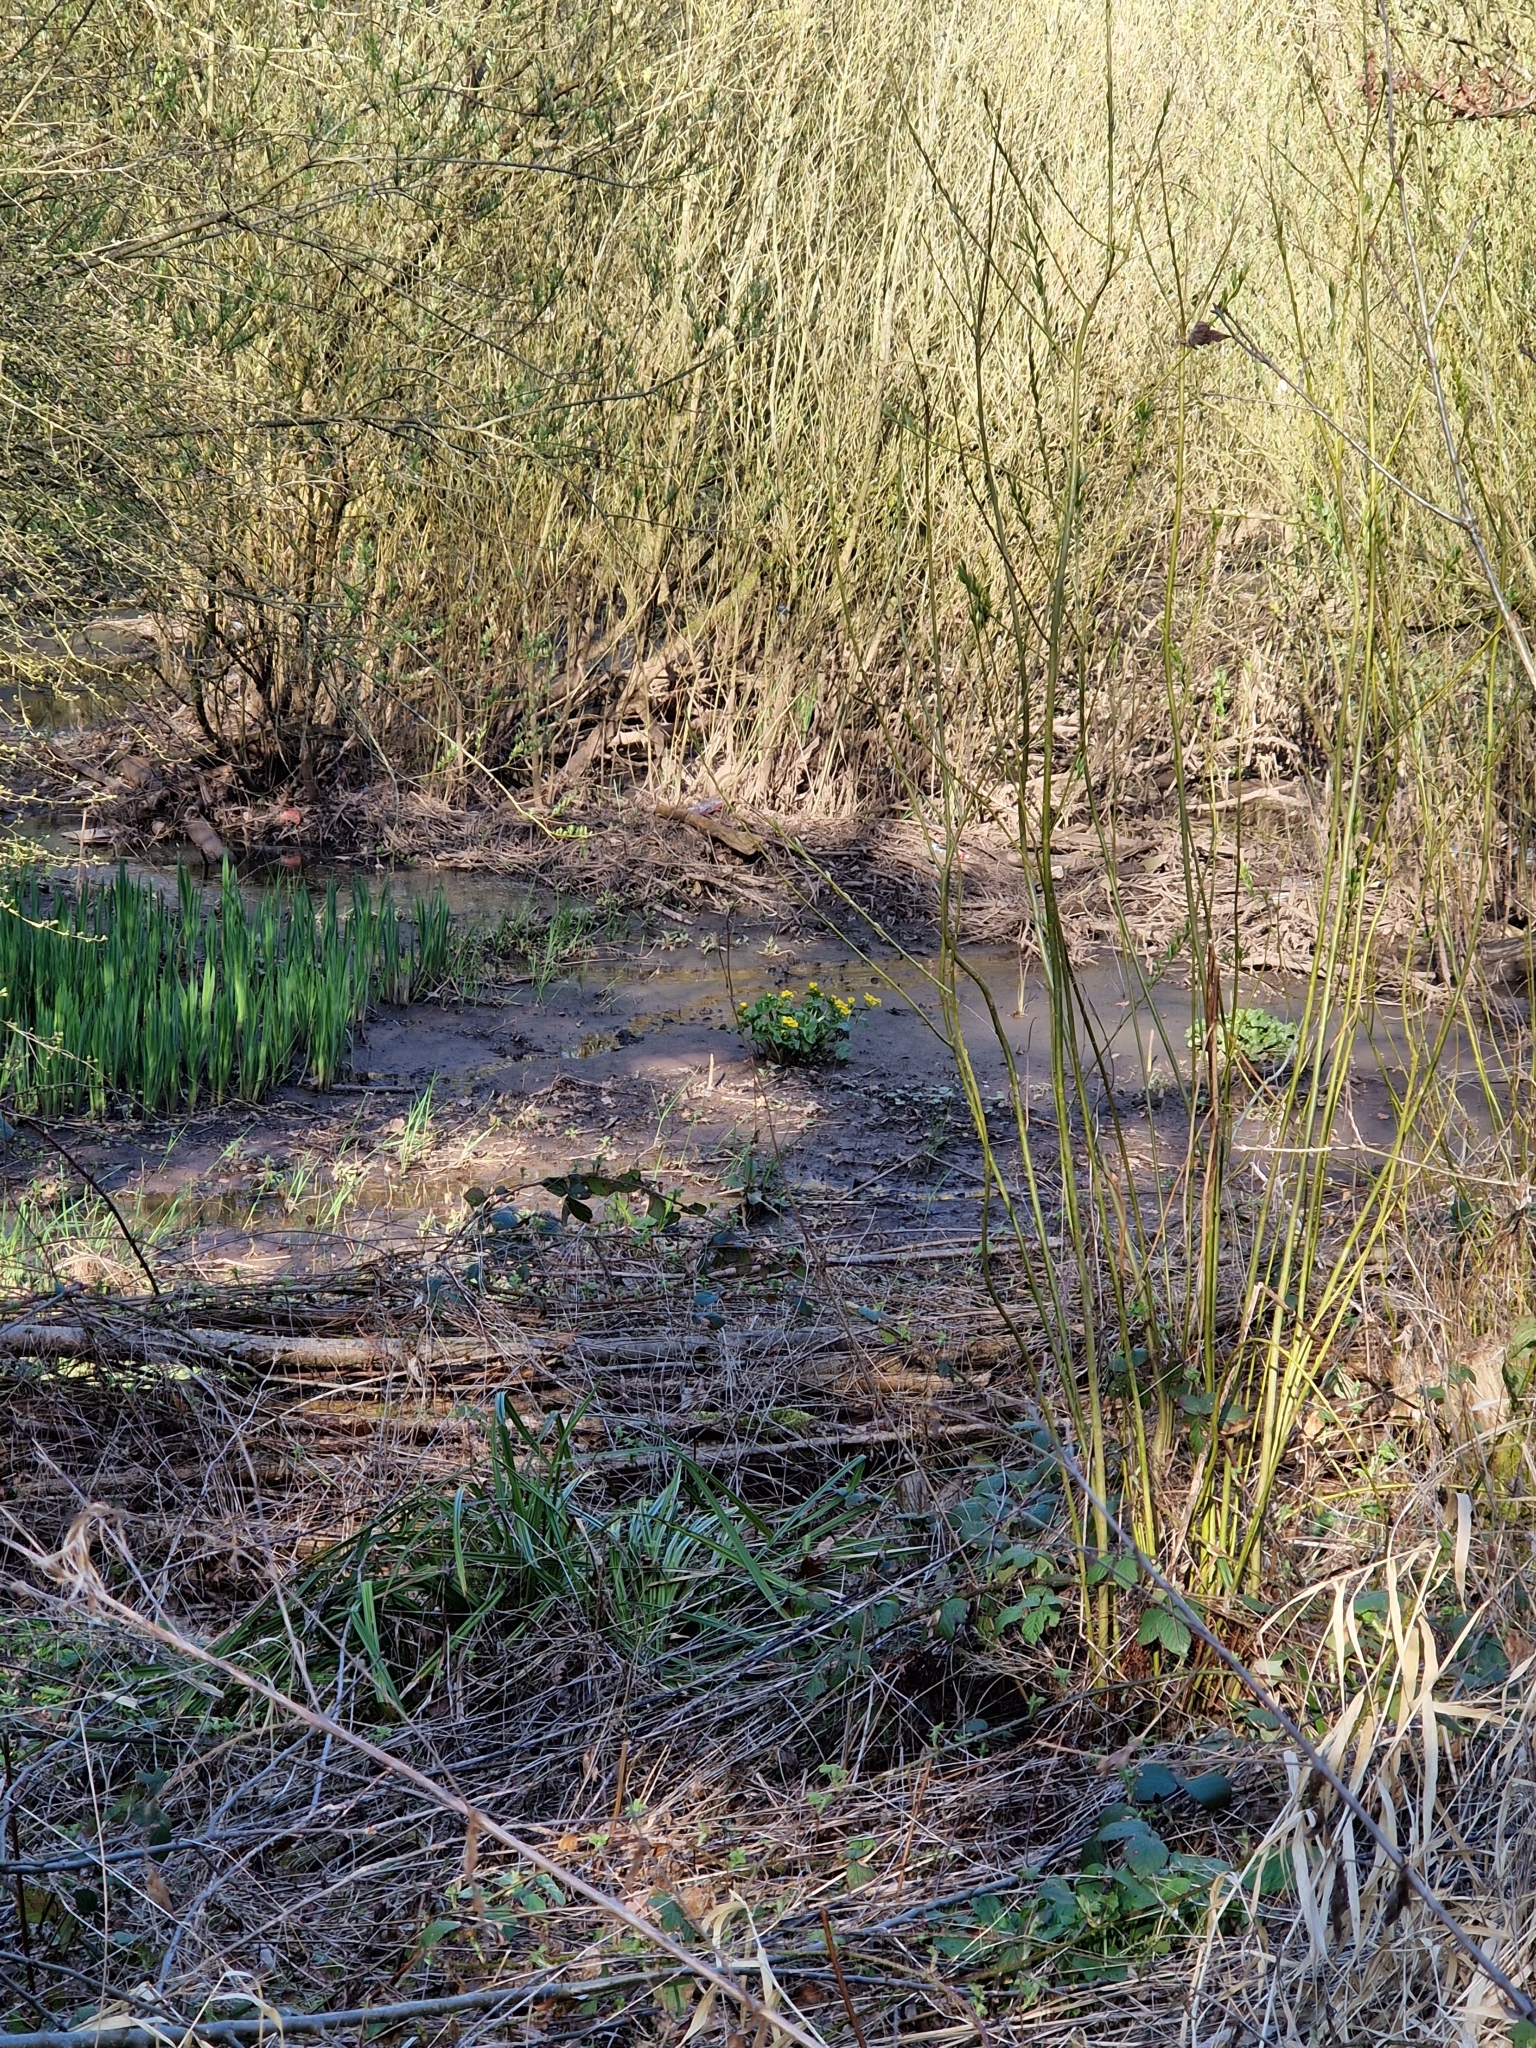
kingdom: Plantae
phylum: Tracheophyta
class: Magnoliopsida
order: Ranunculales
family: Ranunculaceae
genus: Caltha
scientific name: Caltha palustris
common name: Marsh marigold
